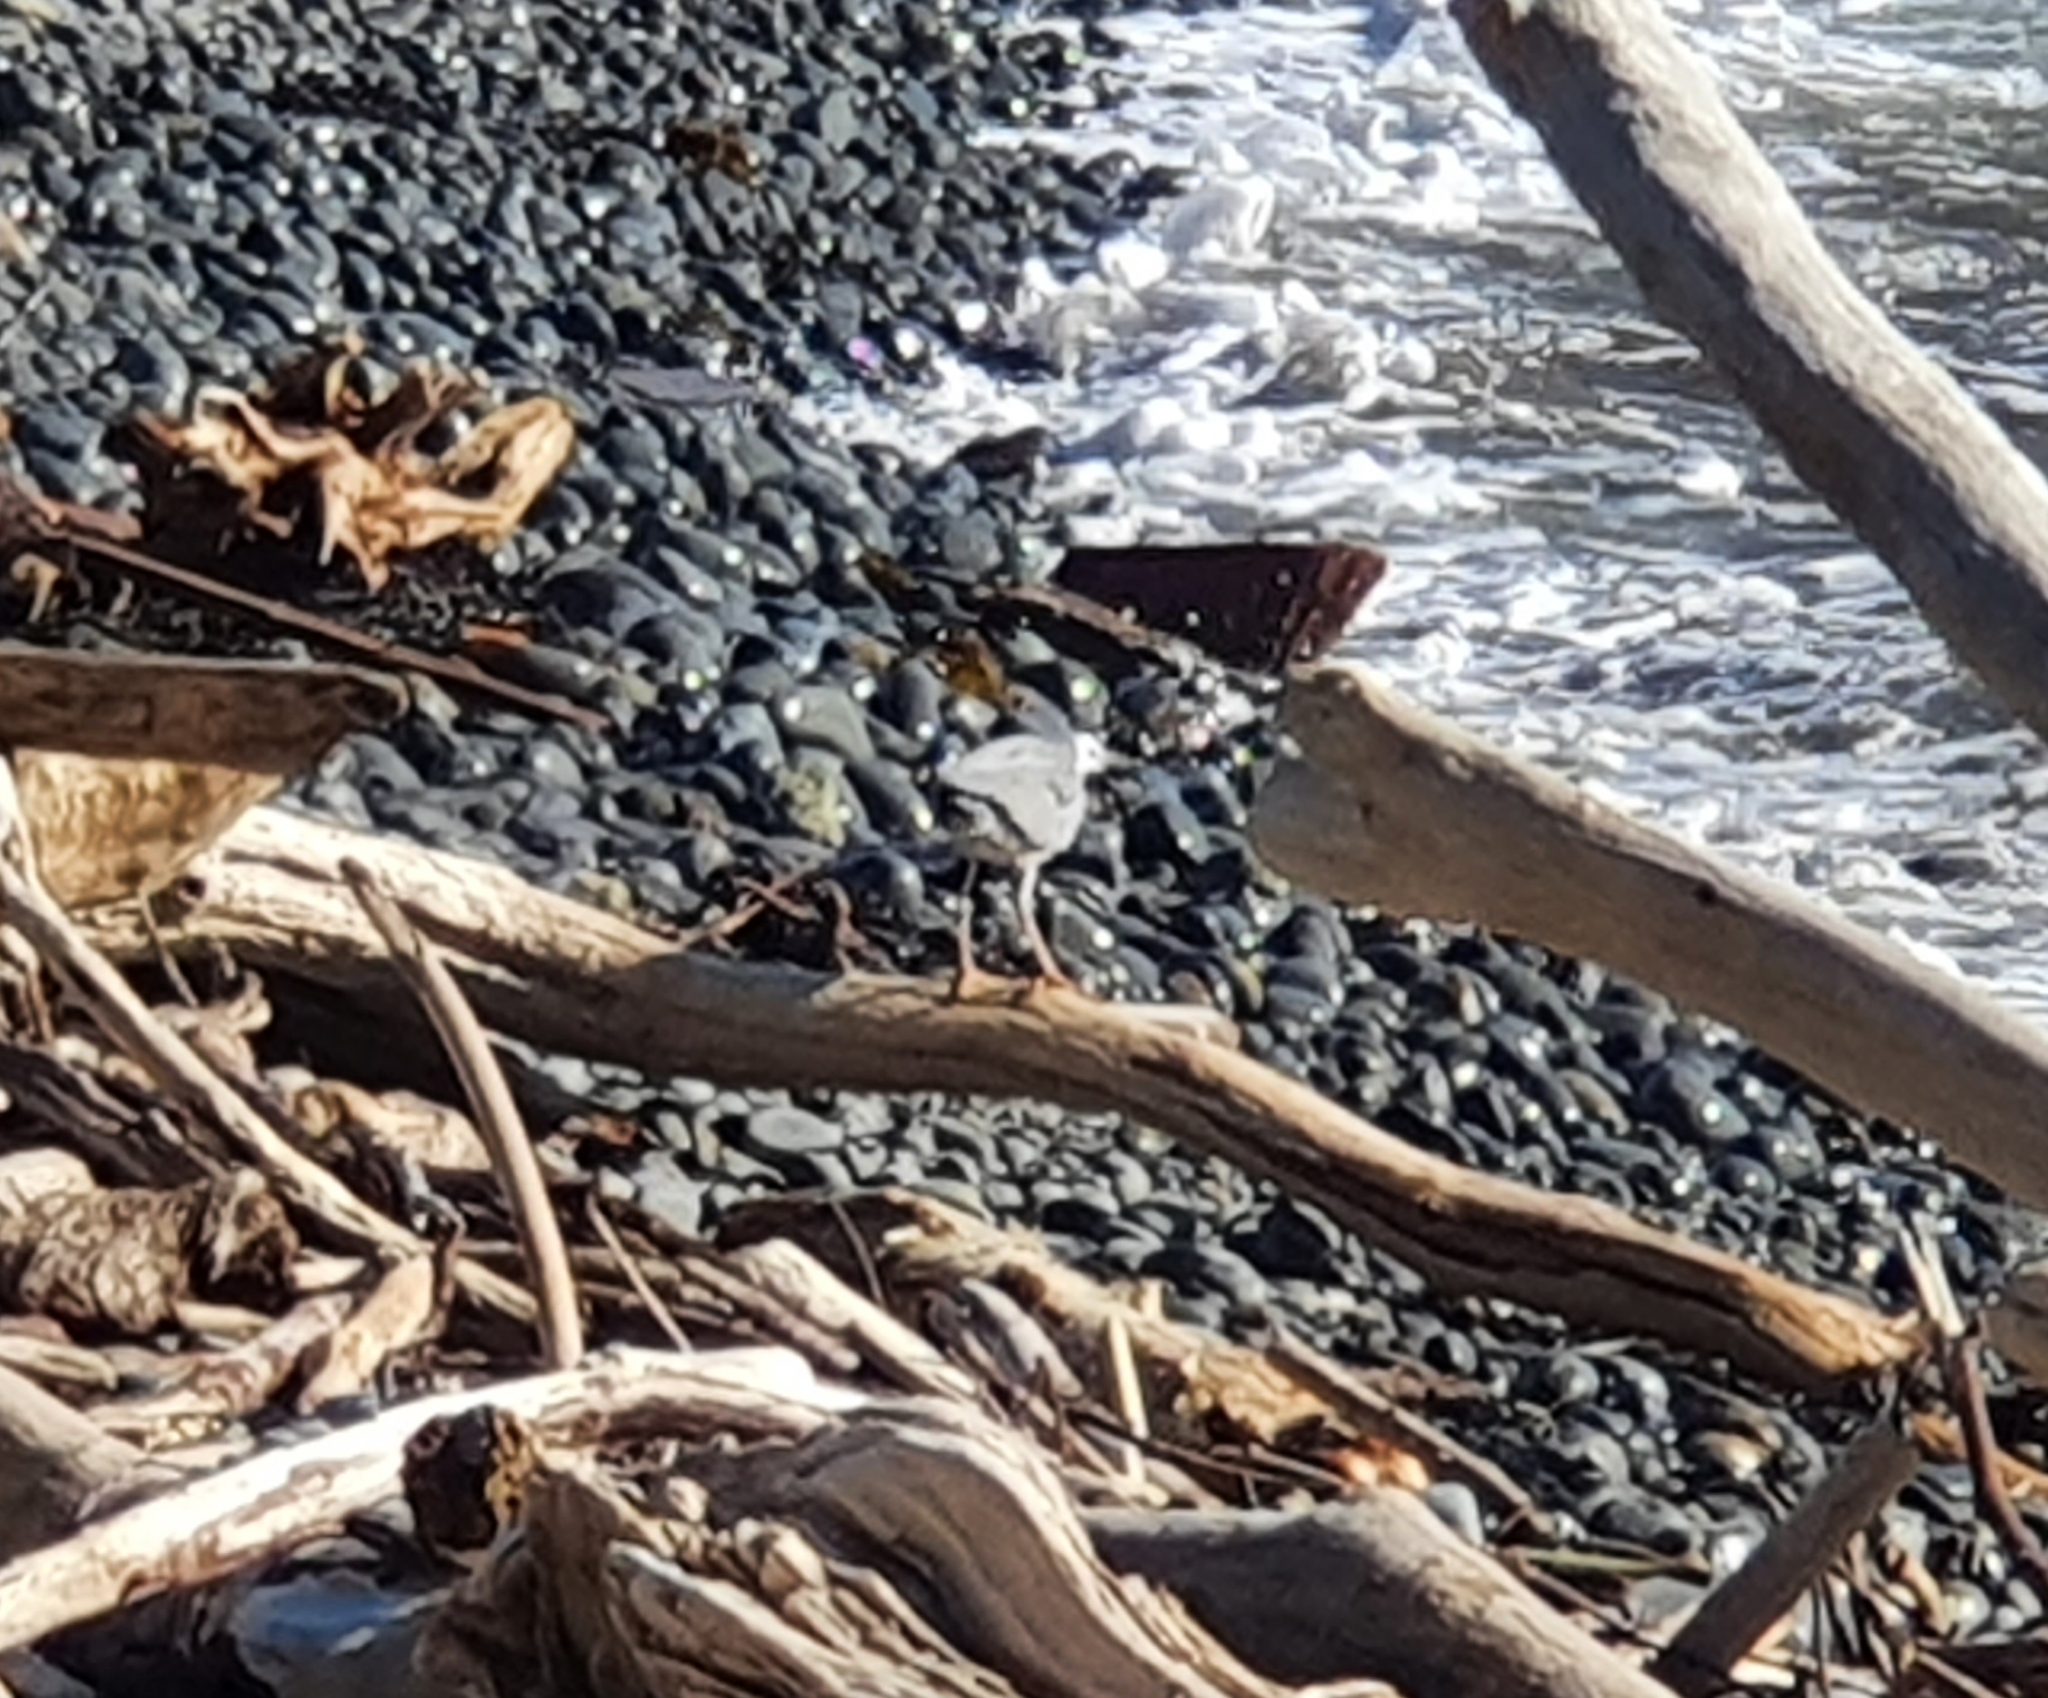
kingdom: Animalia
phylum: Chordata
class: Aves
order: Pelecaniformes
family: Ardeidae
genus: Egretta
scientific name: Egretta novaehollandiae
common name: White-faced heron
